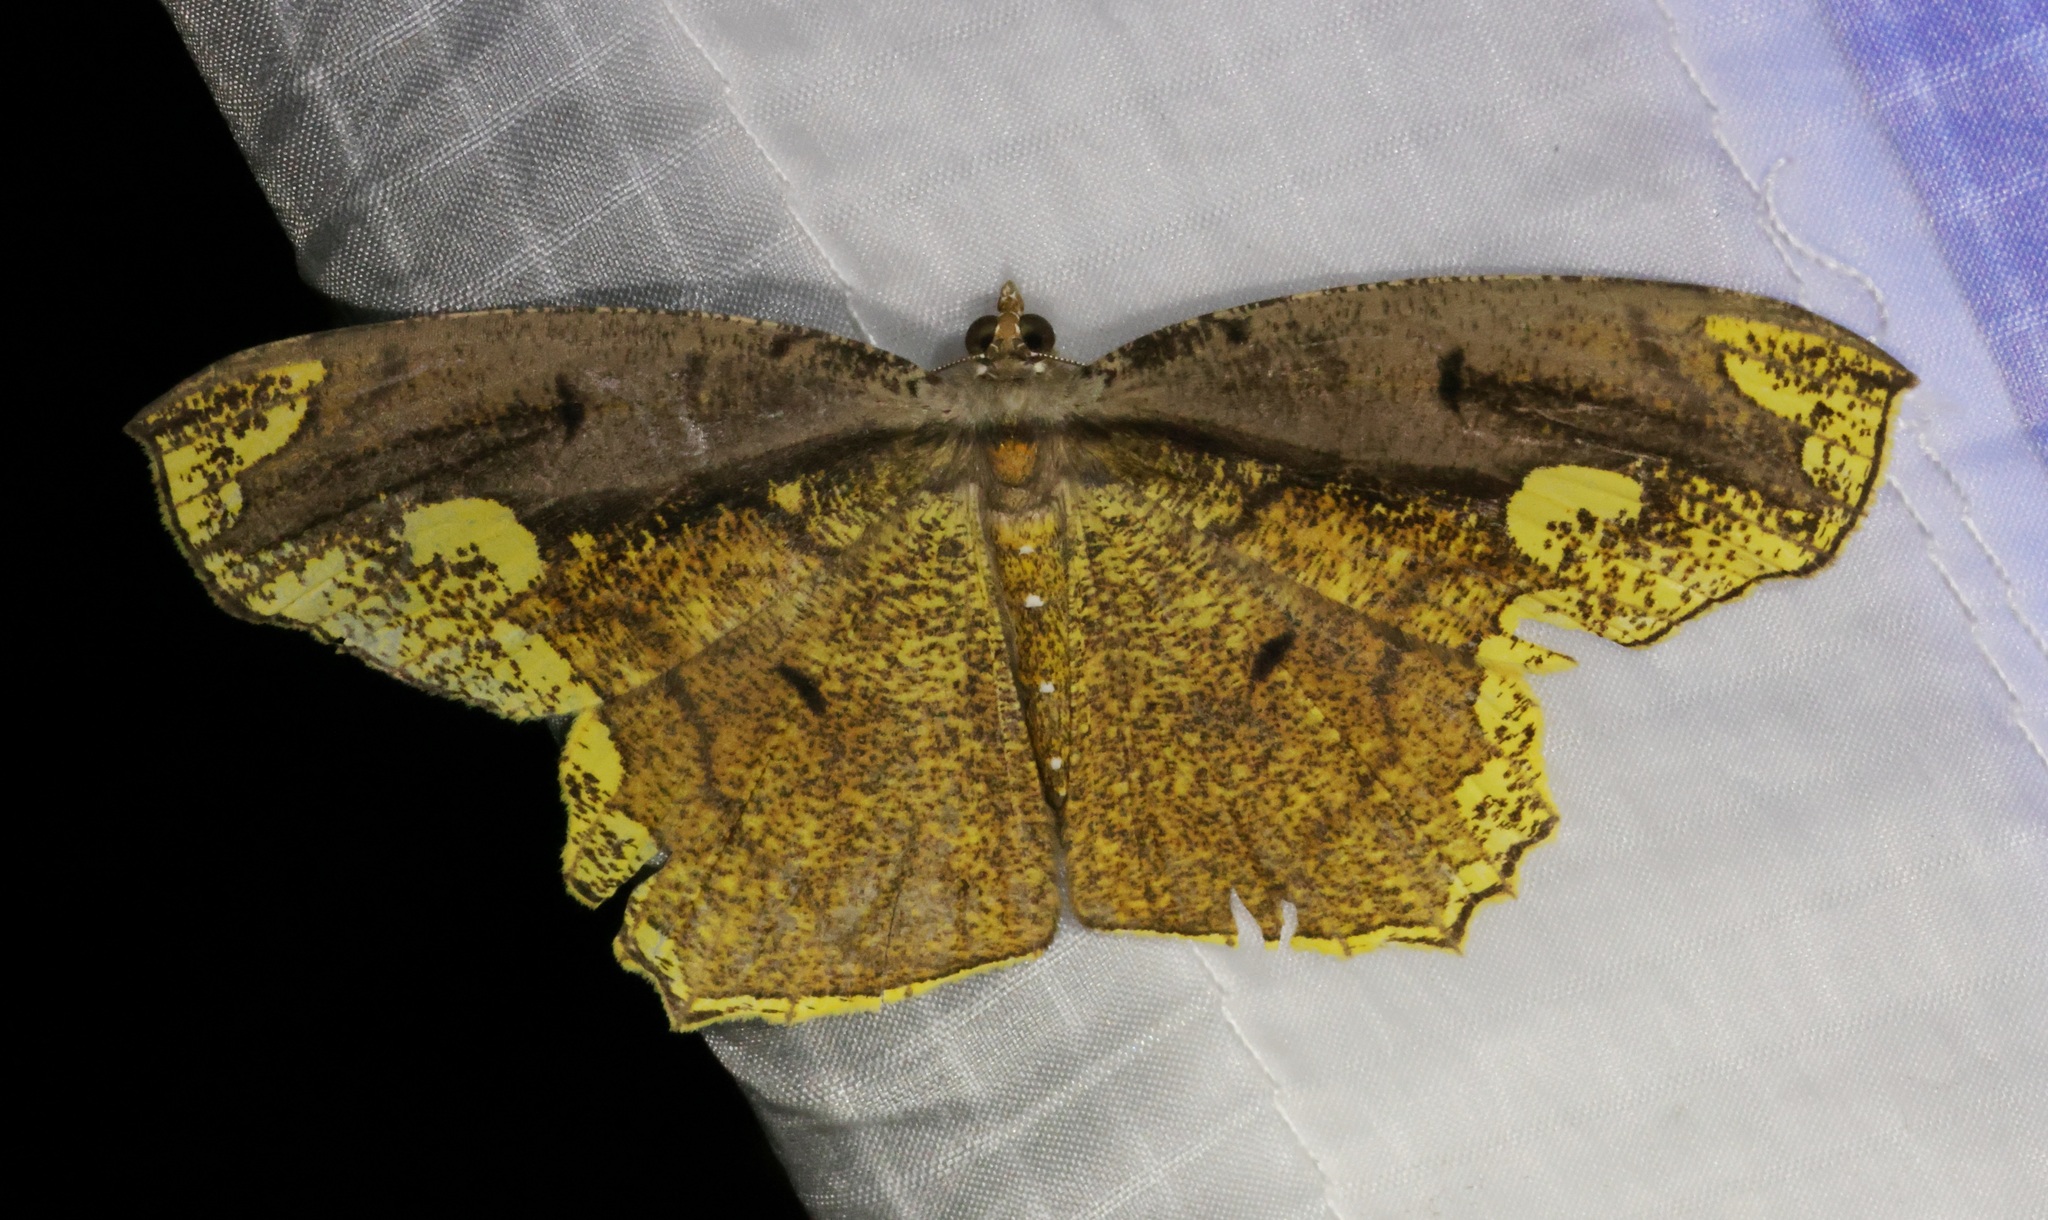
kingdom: Animalia
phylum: Arthropoda
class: Insecta
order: Lepidoptera
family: Geometridae
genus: Pareumelea
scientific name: Pareumelea eugeniata
